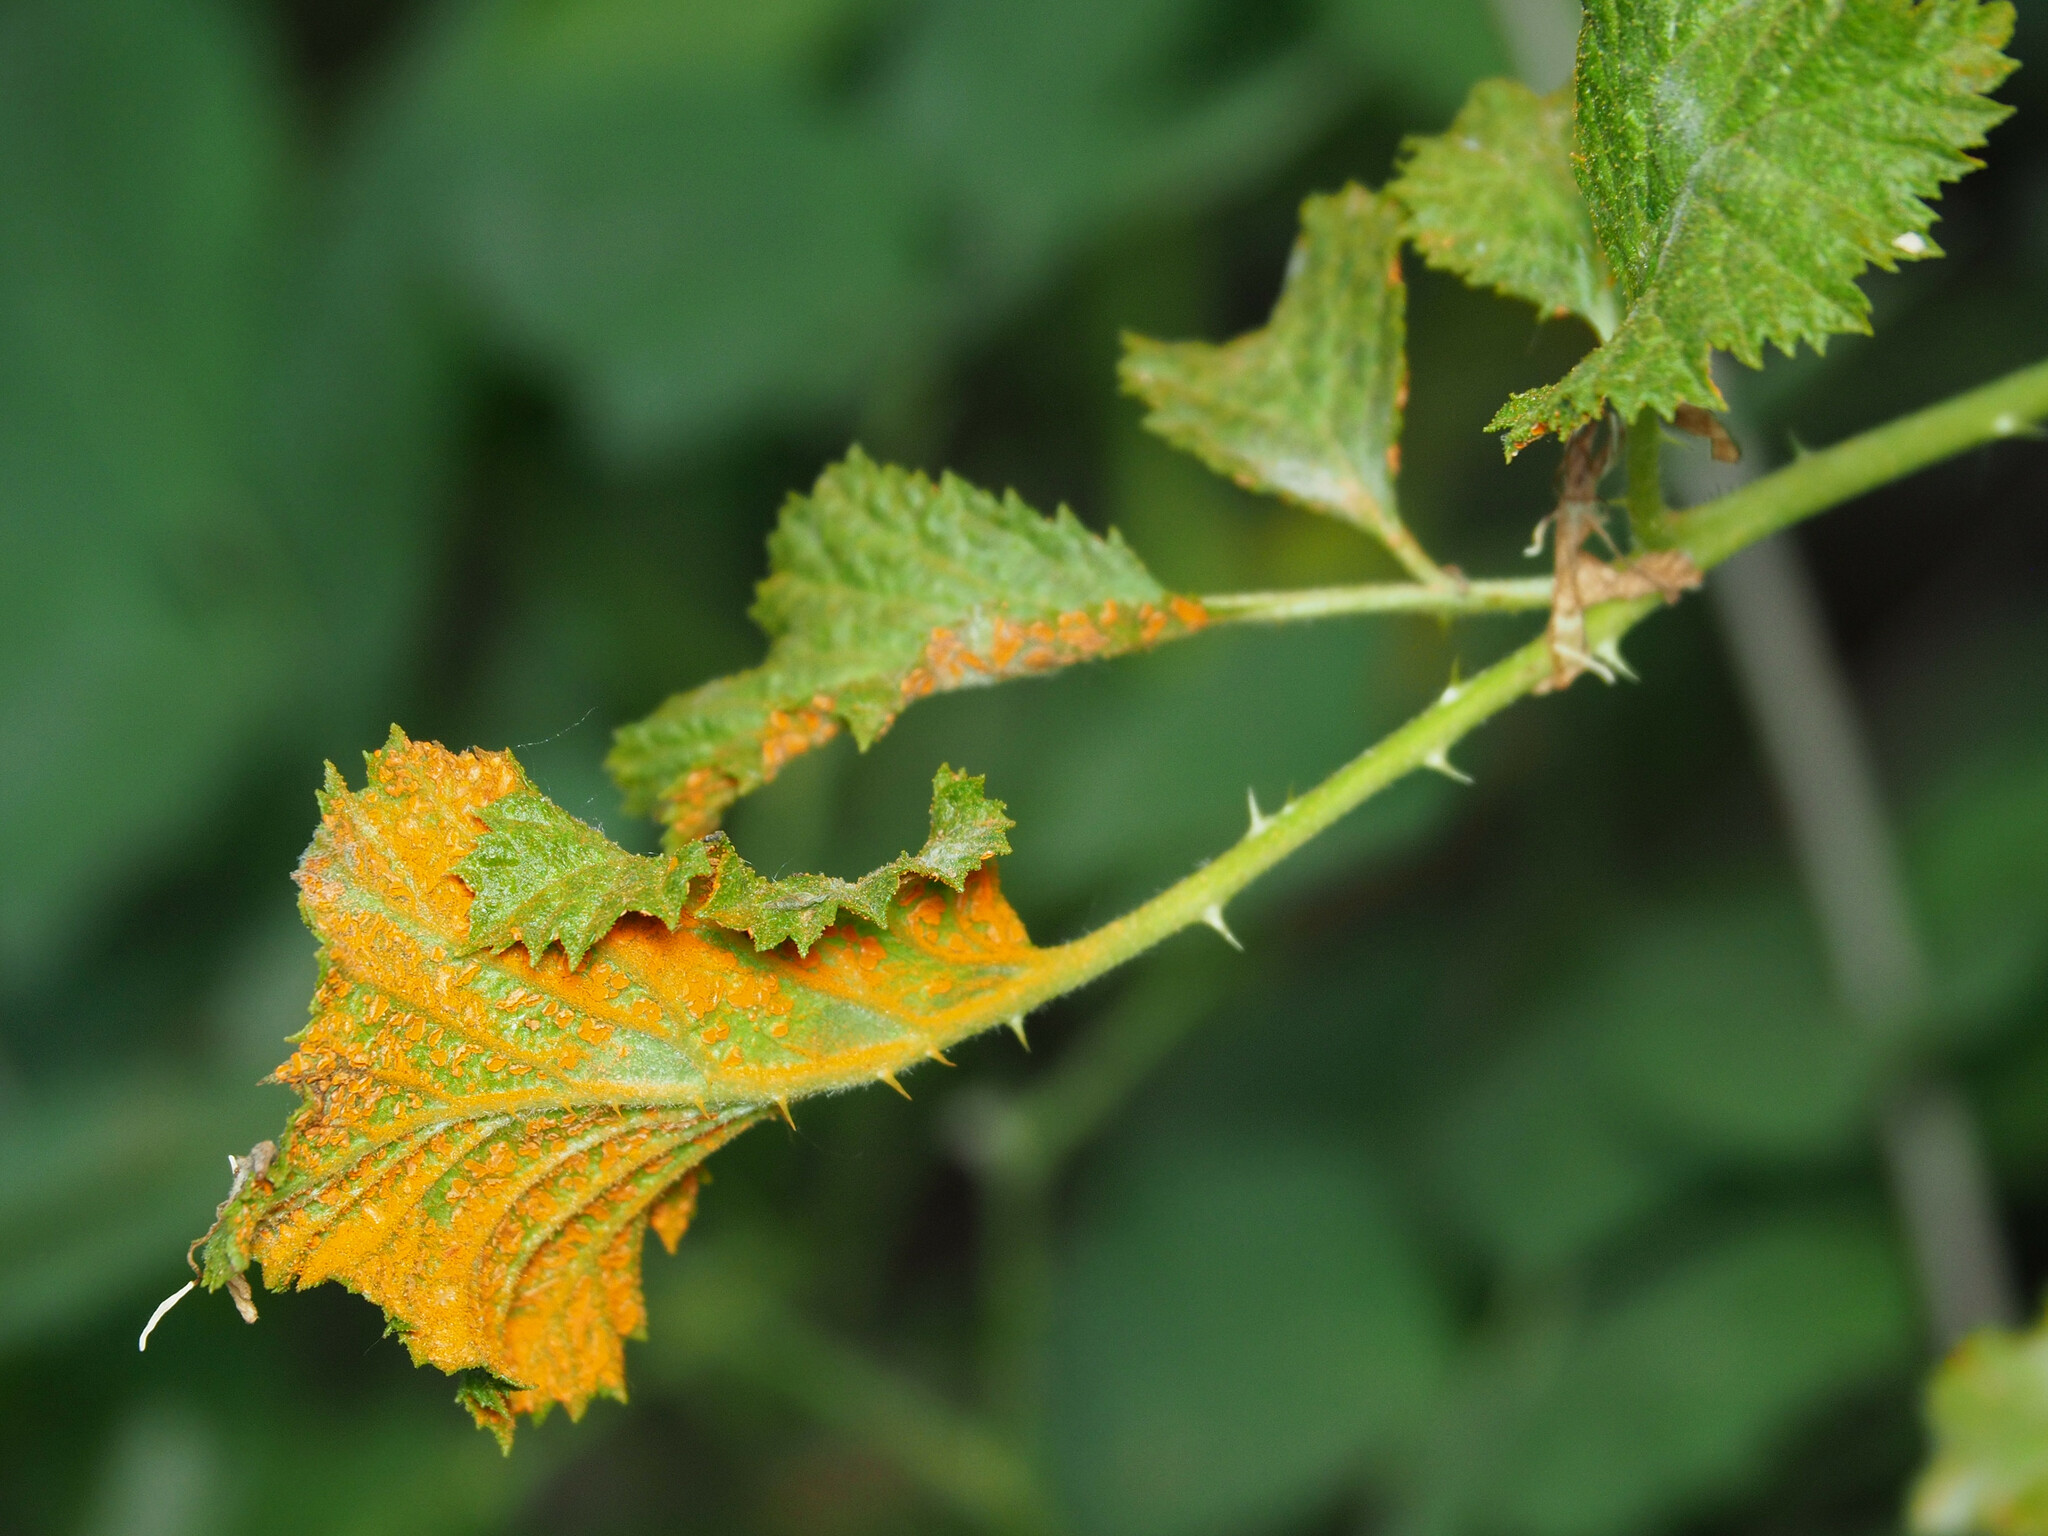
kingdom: Fungi
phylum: Basidiomycota
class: Pucciniomycetes
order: Pucciniales
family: Phragmidiaceae
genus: Arthuriomyces
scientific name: Arthuriomyces peckianus
